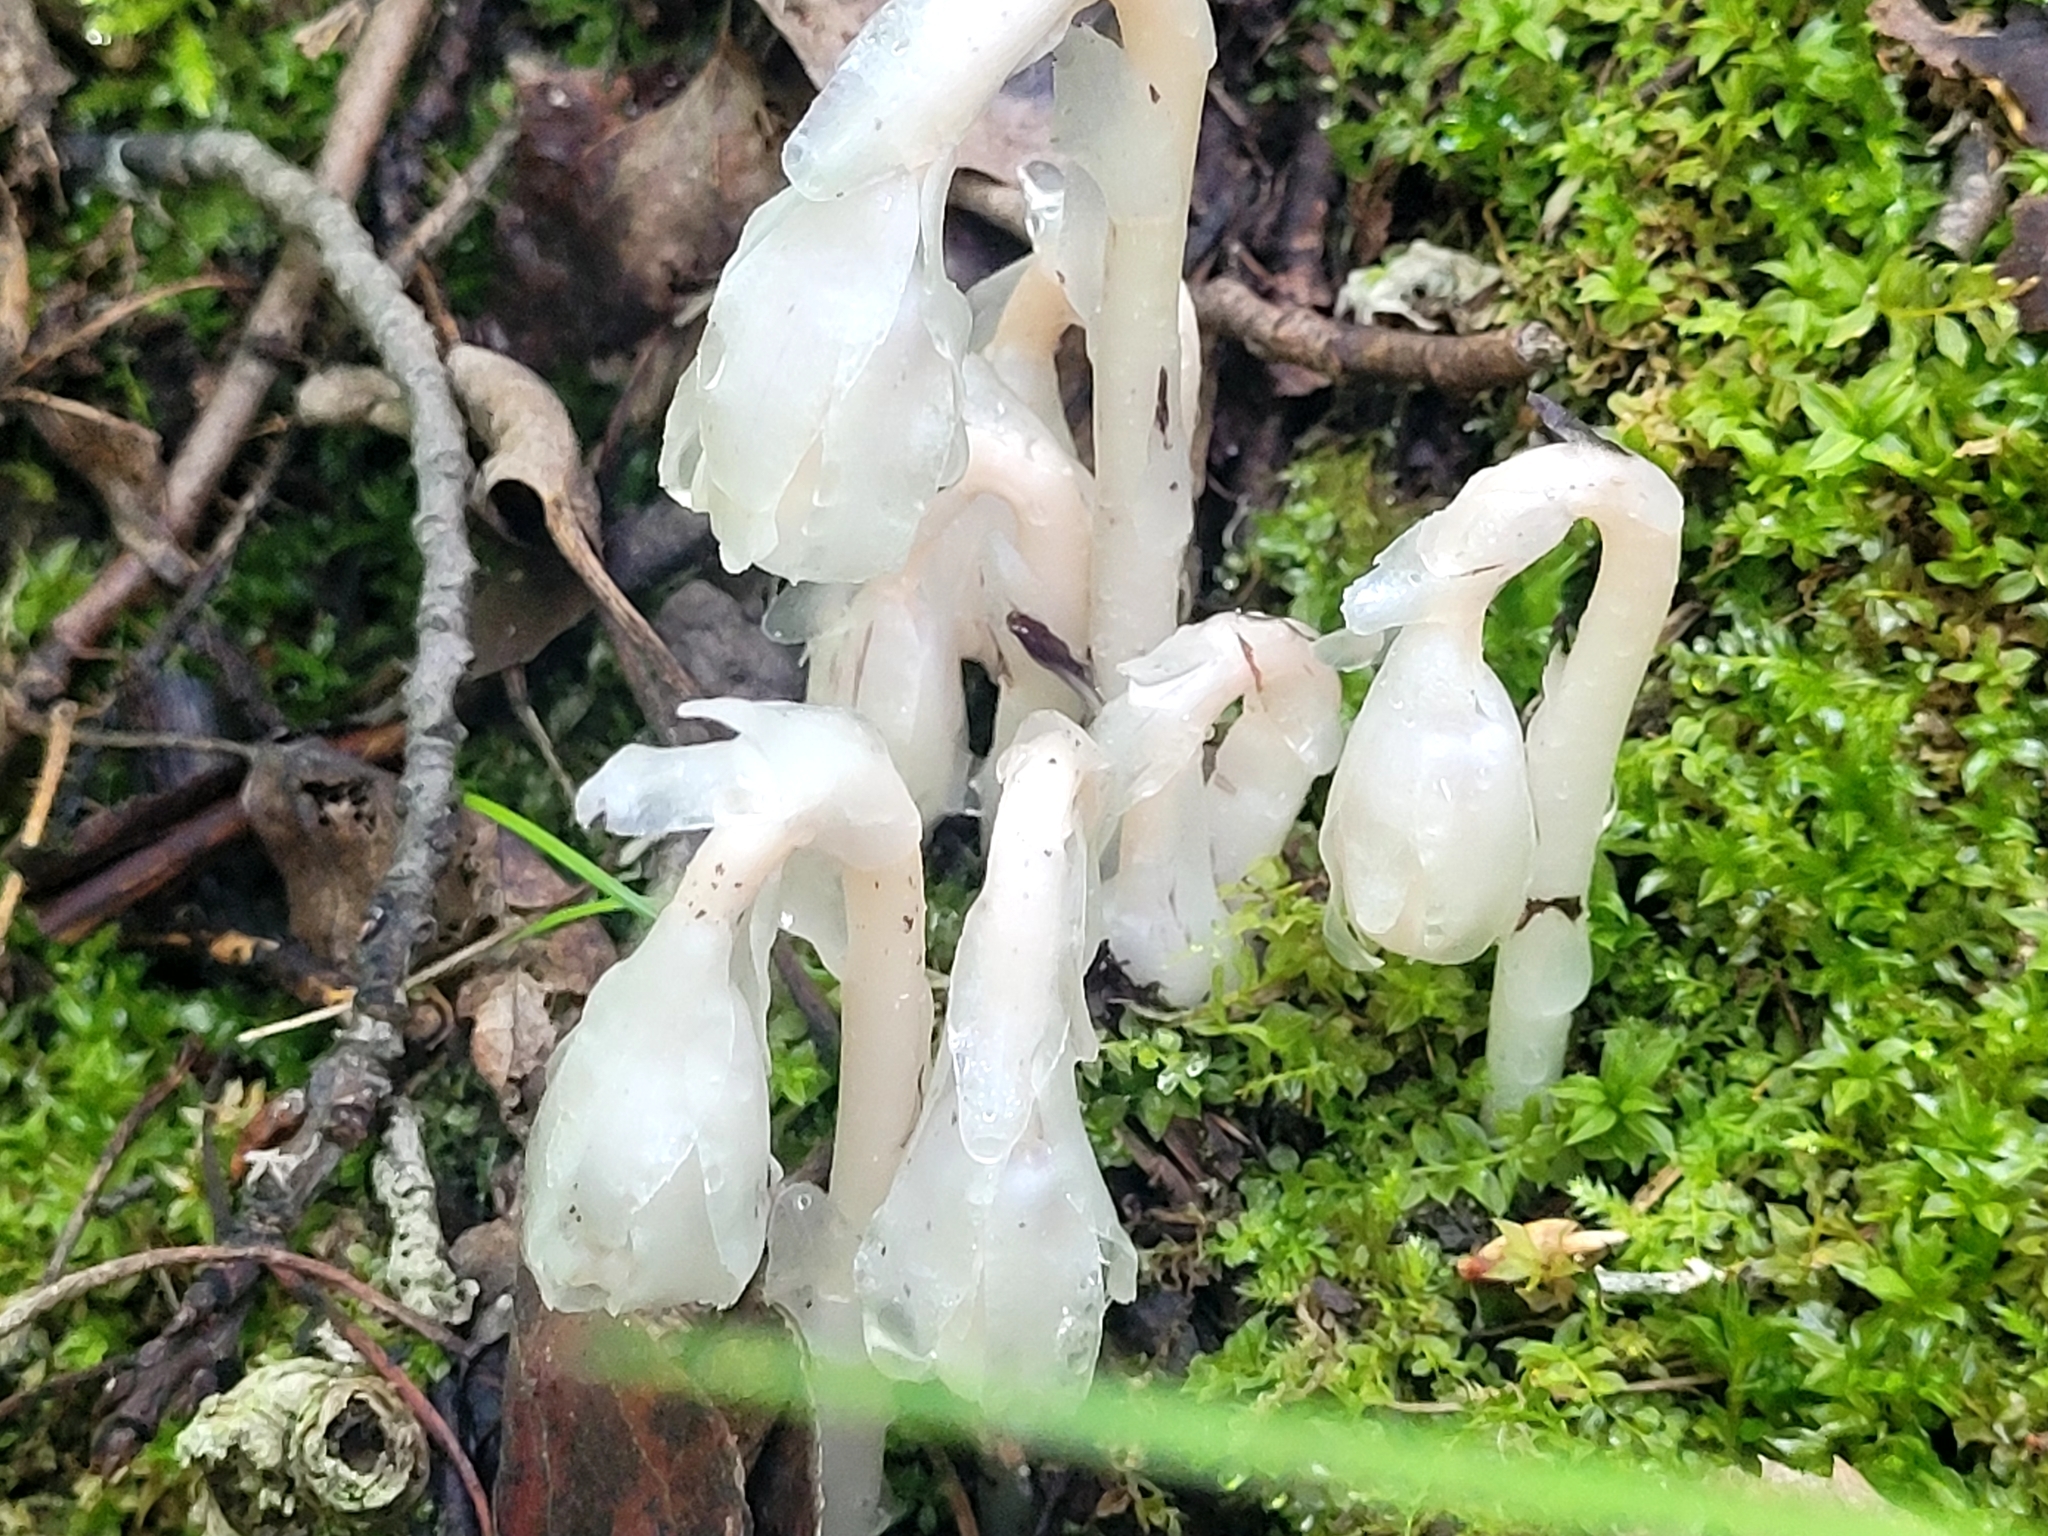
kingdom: Plantae
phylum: Tracheophyta
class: Magnoliopsida
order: Ericales
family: Ericaceae
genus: Monotropa
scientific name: Monotropa uniflora
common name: Convulsion root
